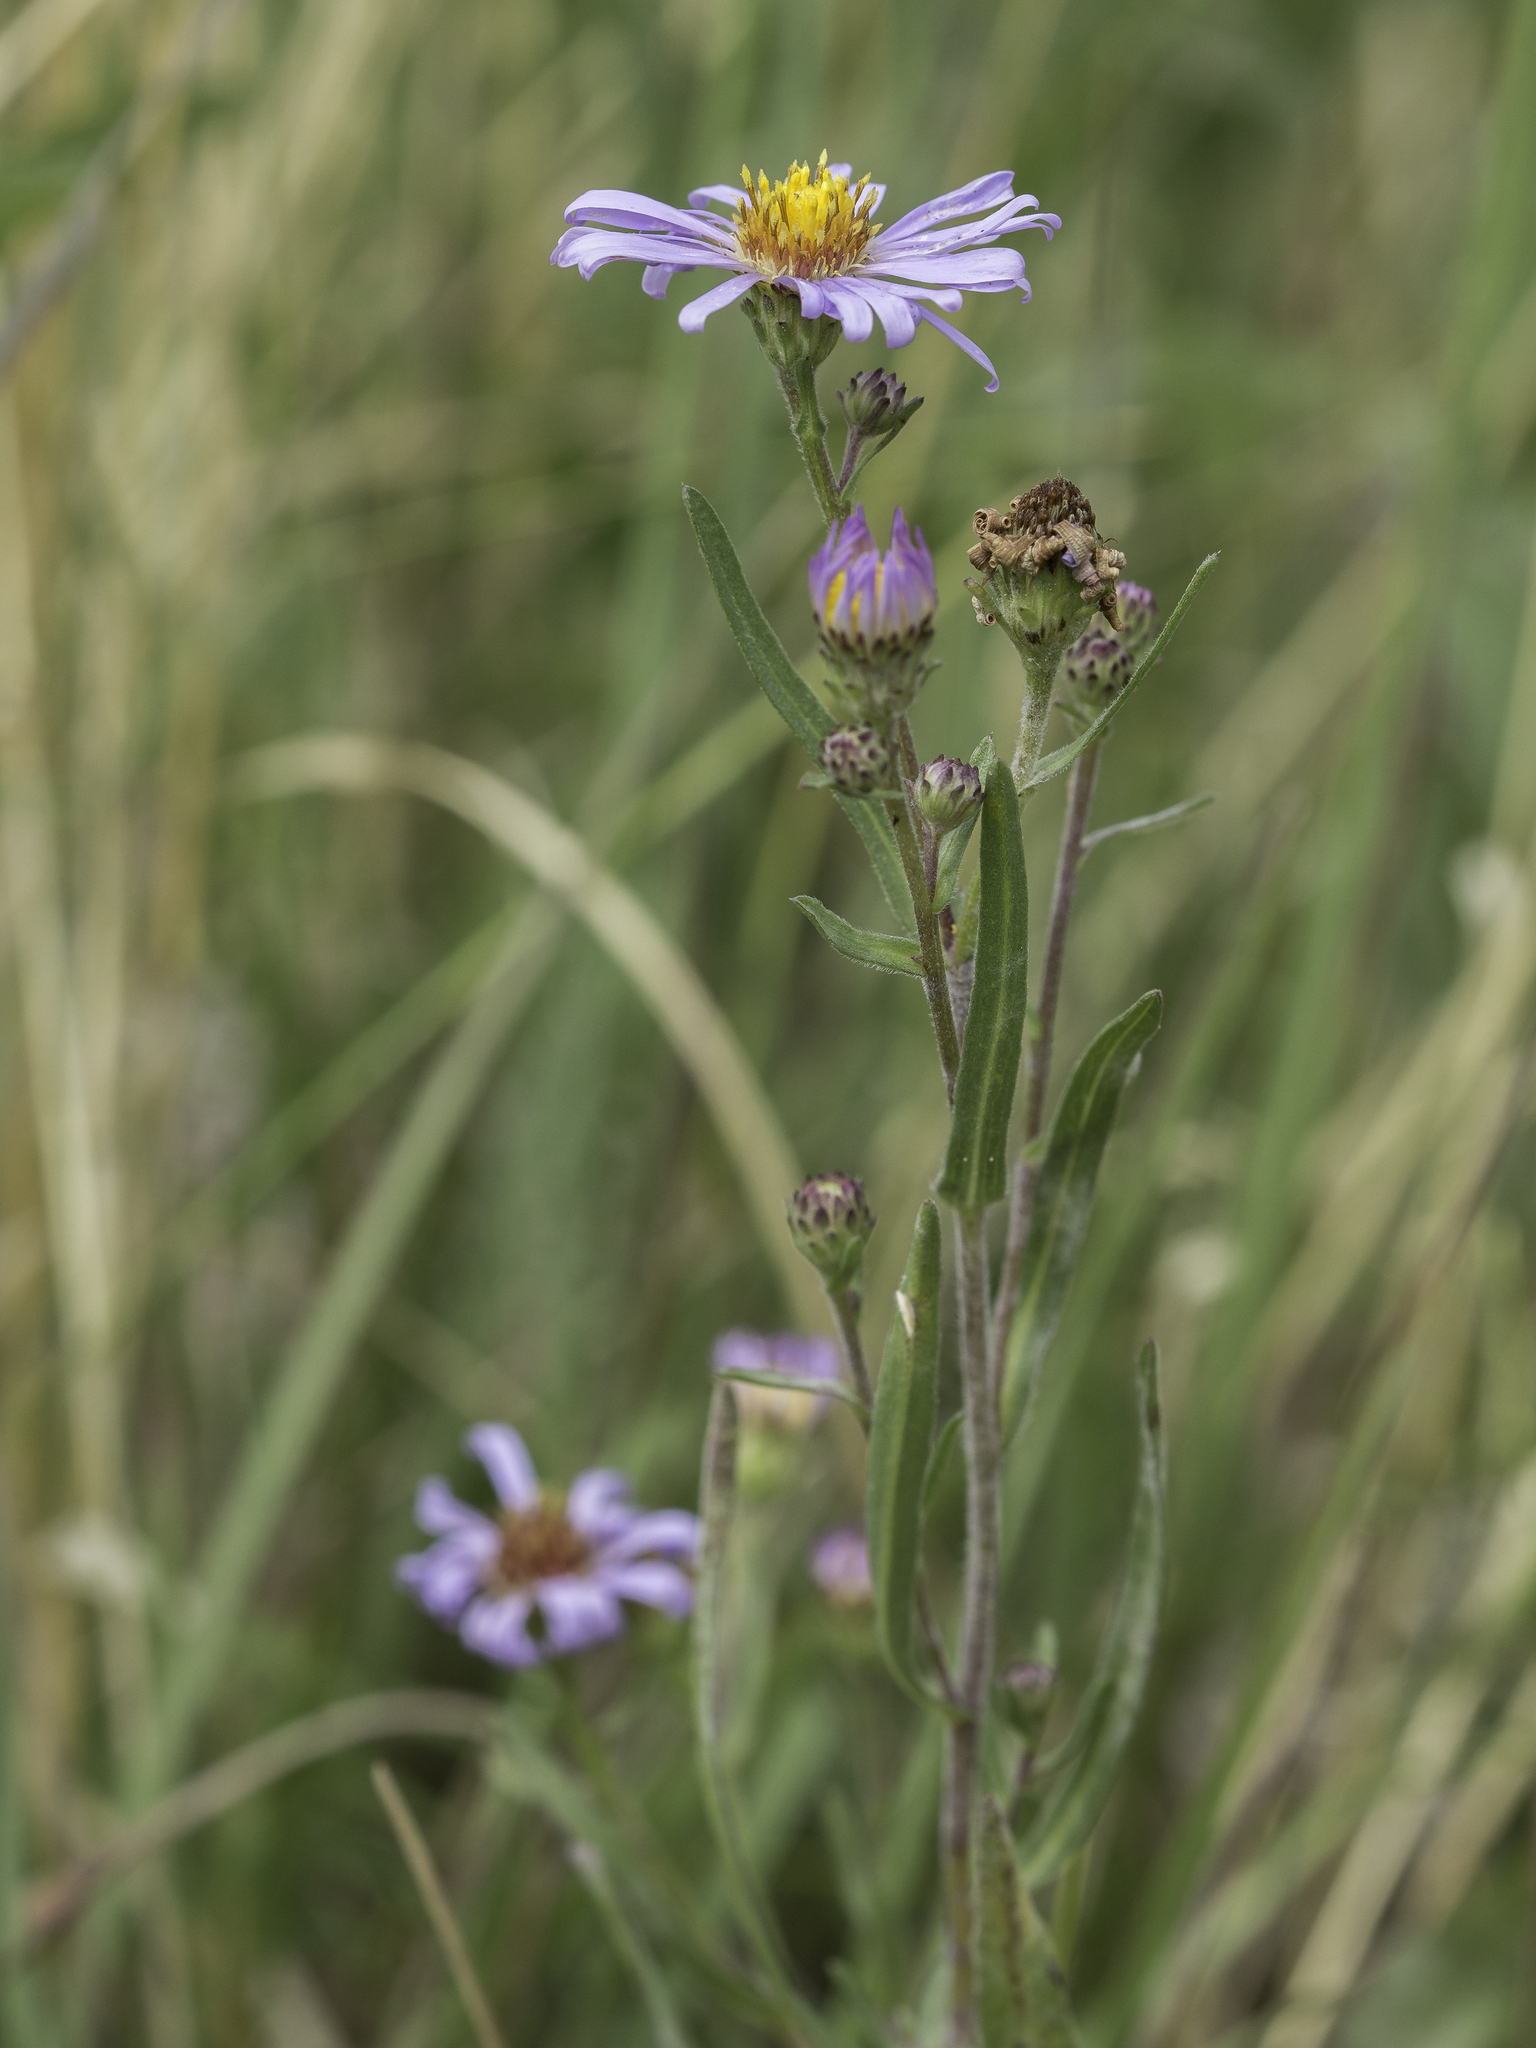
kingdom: Plantae
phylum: Tracheophyta
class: Magnoliopsida
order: Asterales
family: Asteraceae
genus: Symphyotrichum
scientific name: Symphyotrichum ascendens
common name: Intermountain aster
